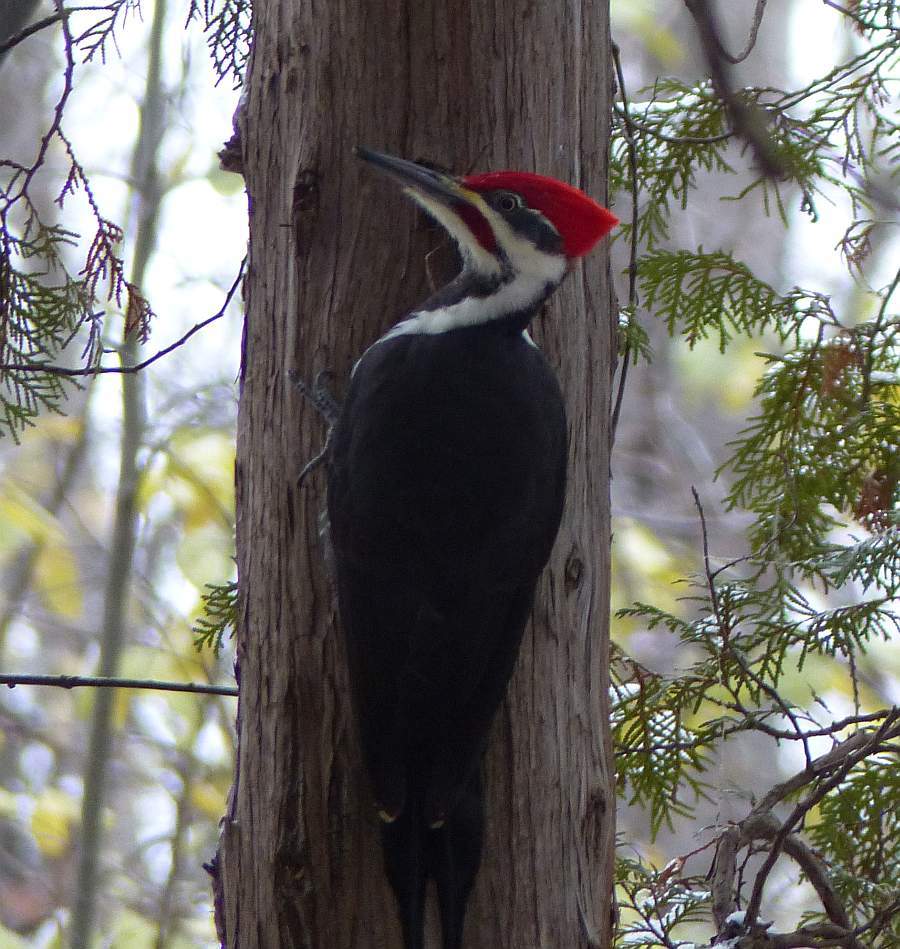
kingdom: Animalia
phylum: Chordata
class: Aves
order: Piciformes
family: Picidae
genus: Dryocopus
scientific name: Dryocopus pileatus
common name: Pileated woodpecker
